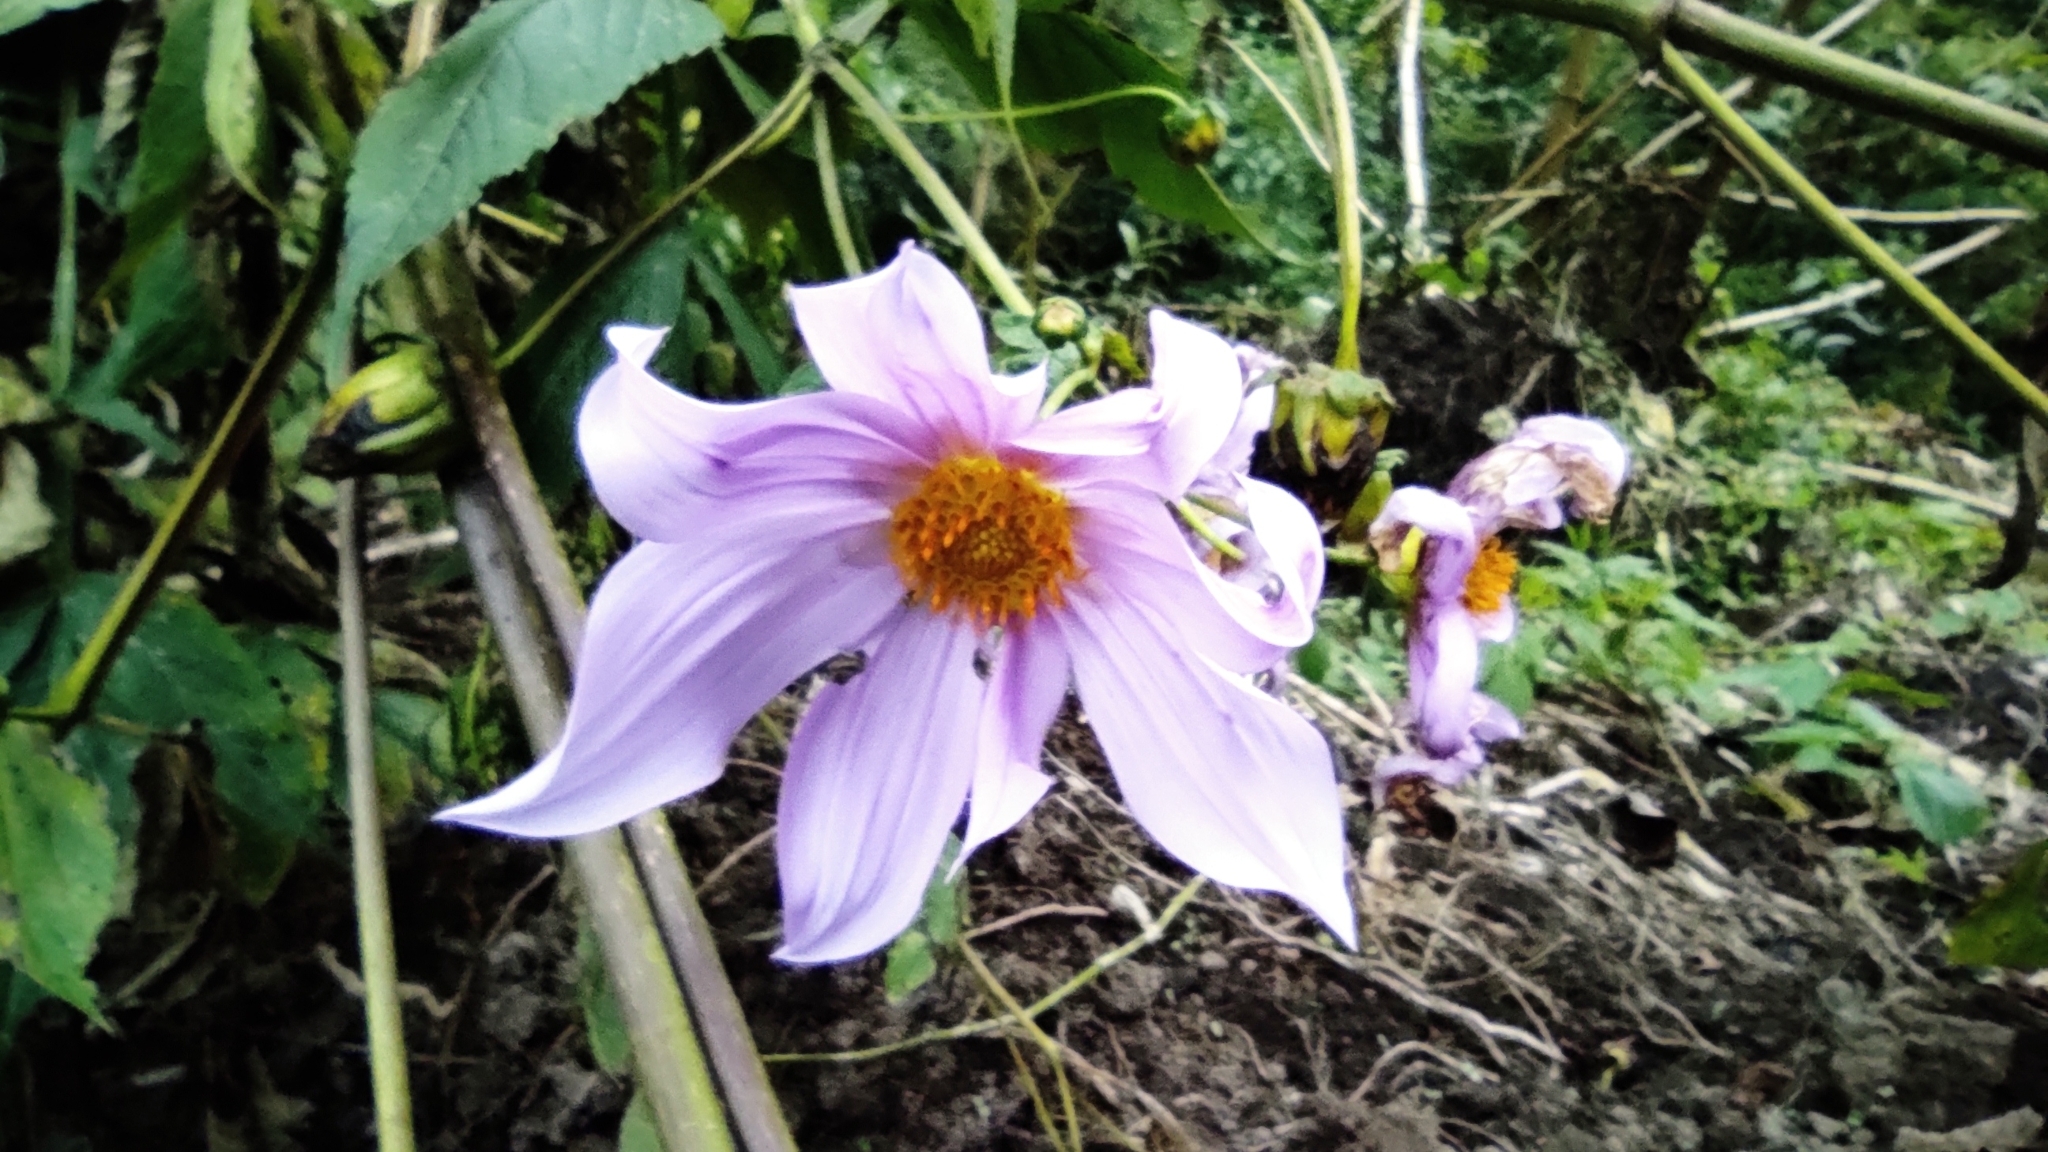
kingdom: Plantae
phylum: Tracheophyta
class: Magnoliopsida
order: Asterales
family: Asteraceae
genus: Dahlia
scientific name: Dahlia imperialis
